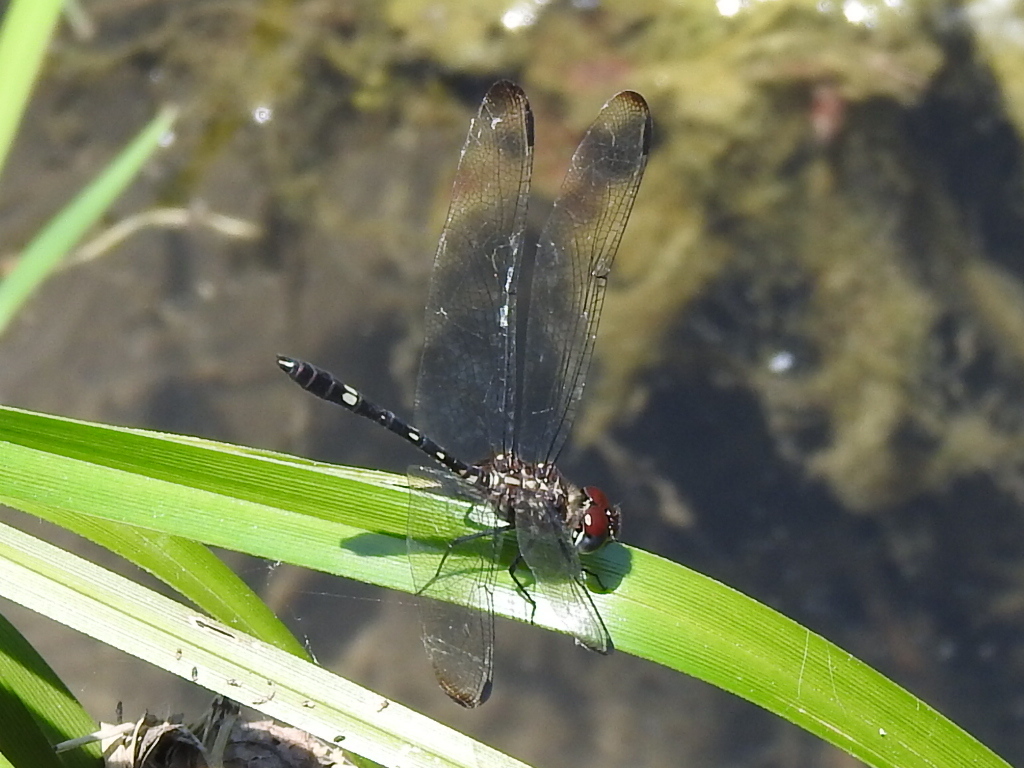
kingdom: Animalia
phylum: Arthropoda
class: Insecta
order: Odonata
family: Libellulidae
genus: Dythemis
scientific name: Dythemis velox
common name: Swift setwing
